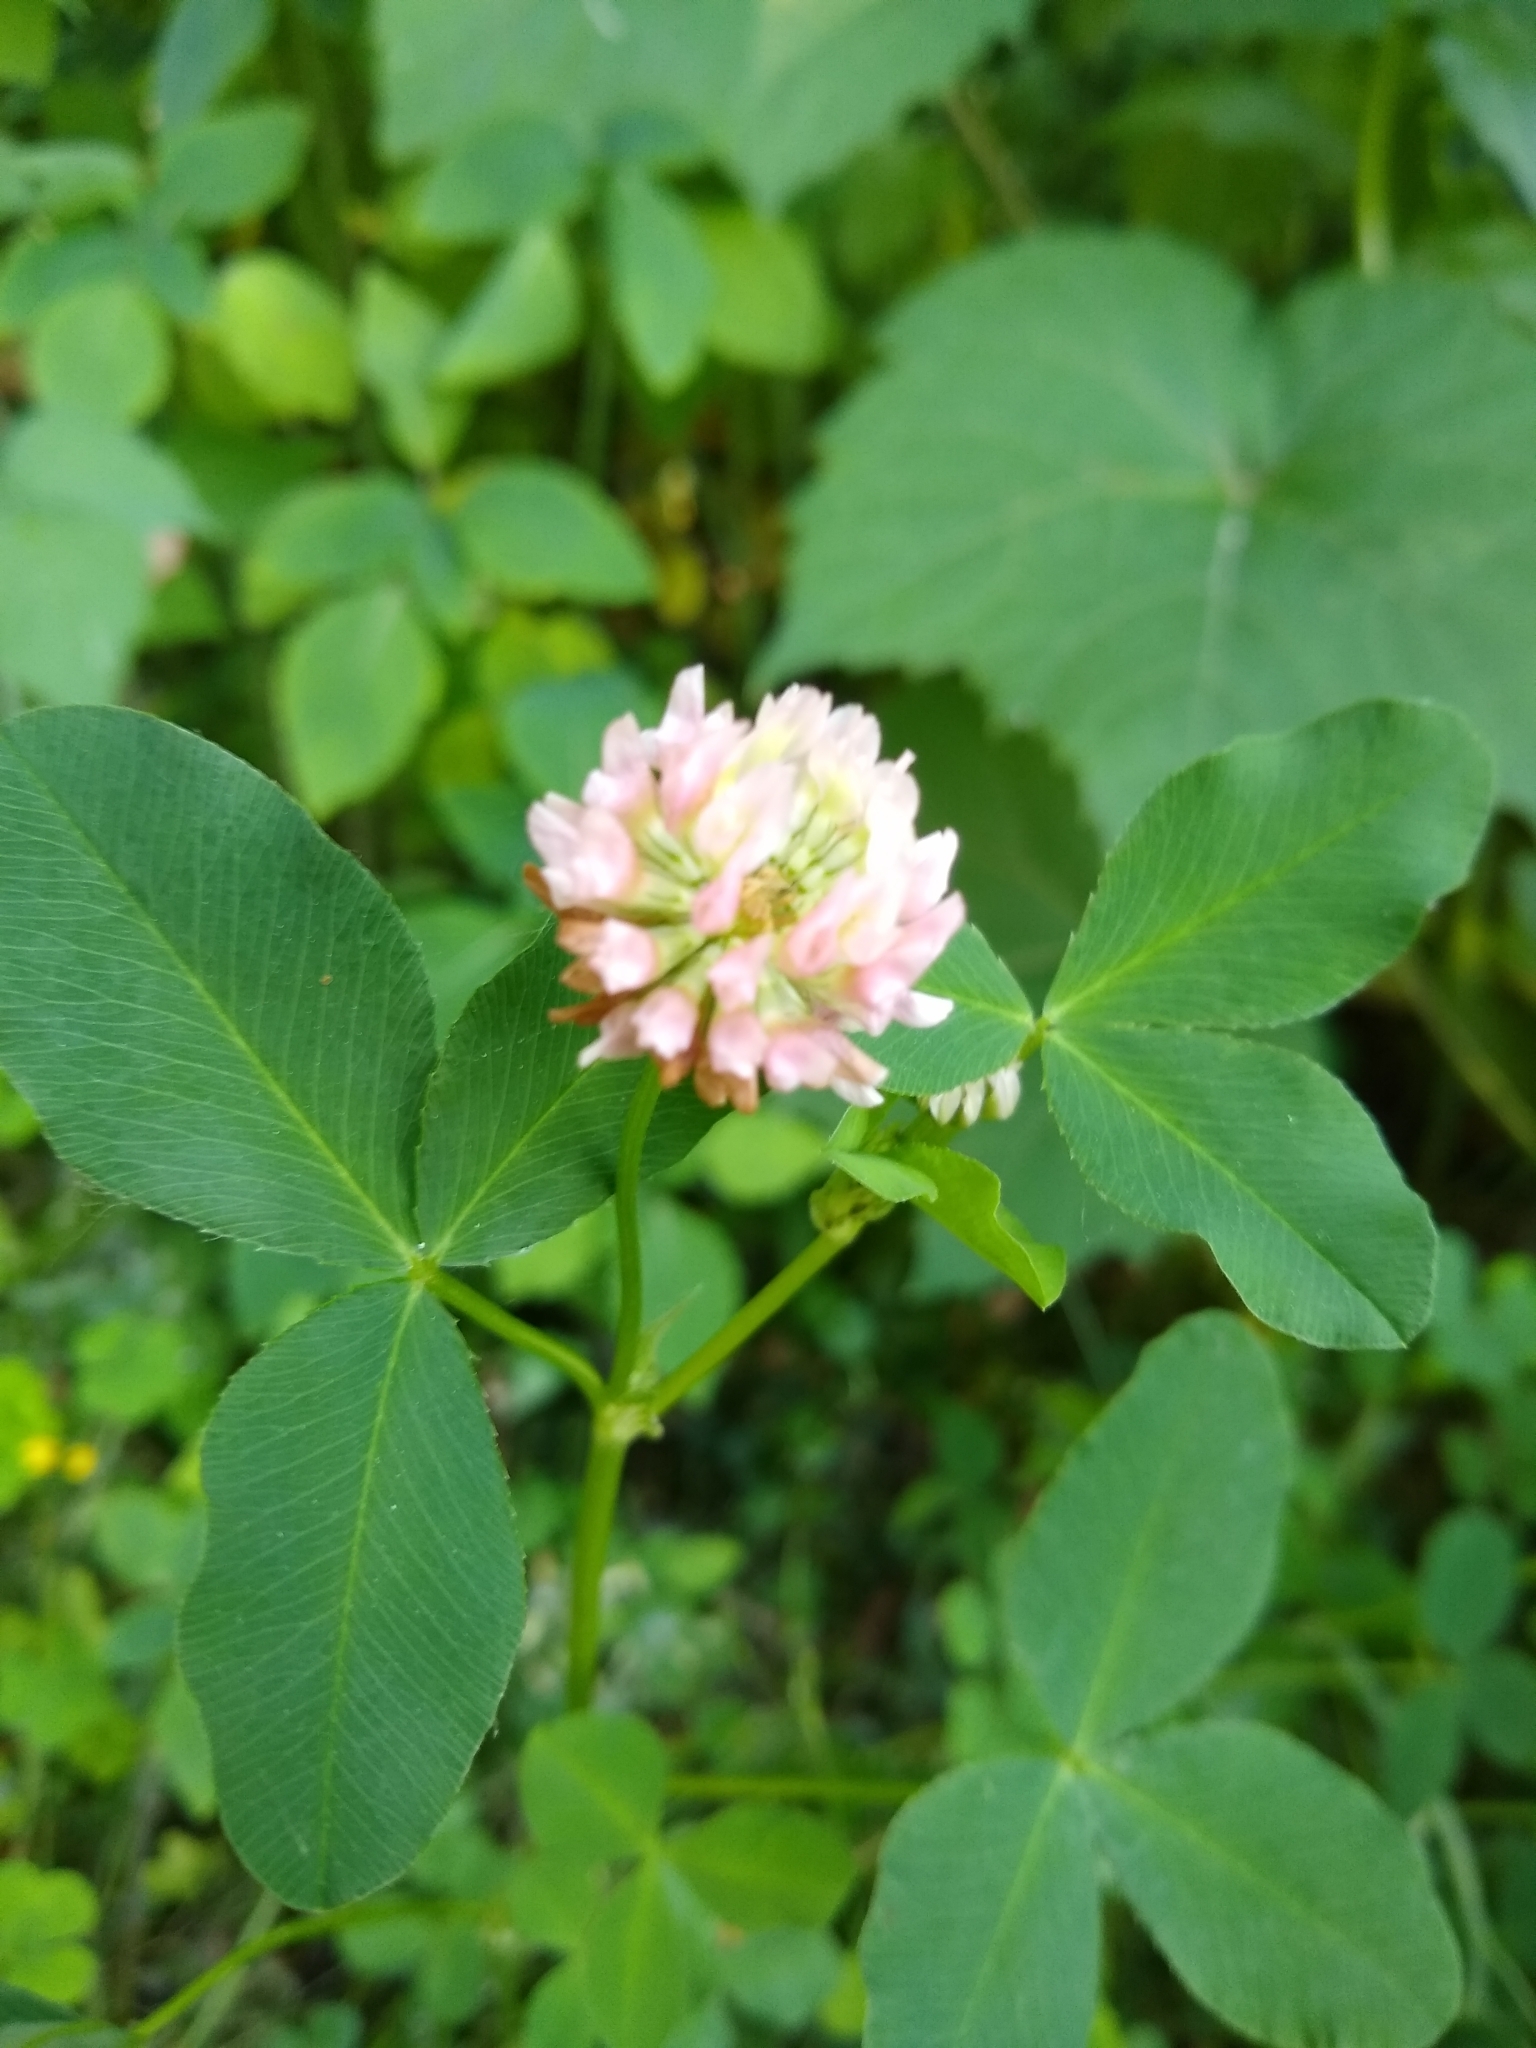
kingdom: Plantae
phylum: Tracheophyta
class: Magnoliopsida
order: Fabales
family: Fabaceae
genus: Trifolium
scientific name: Trifolium hybridum
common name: Alsike clover
